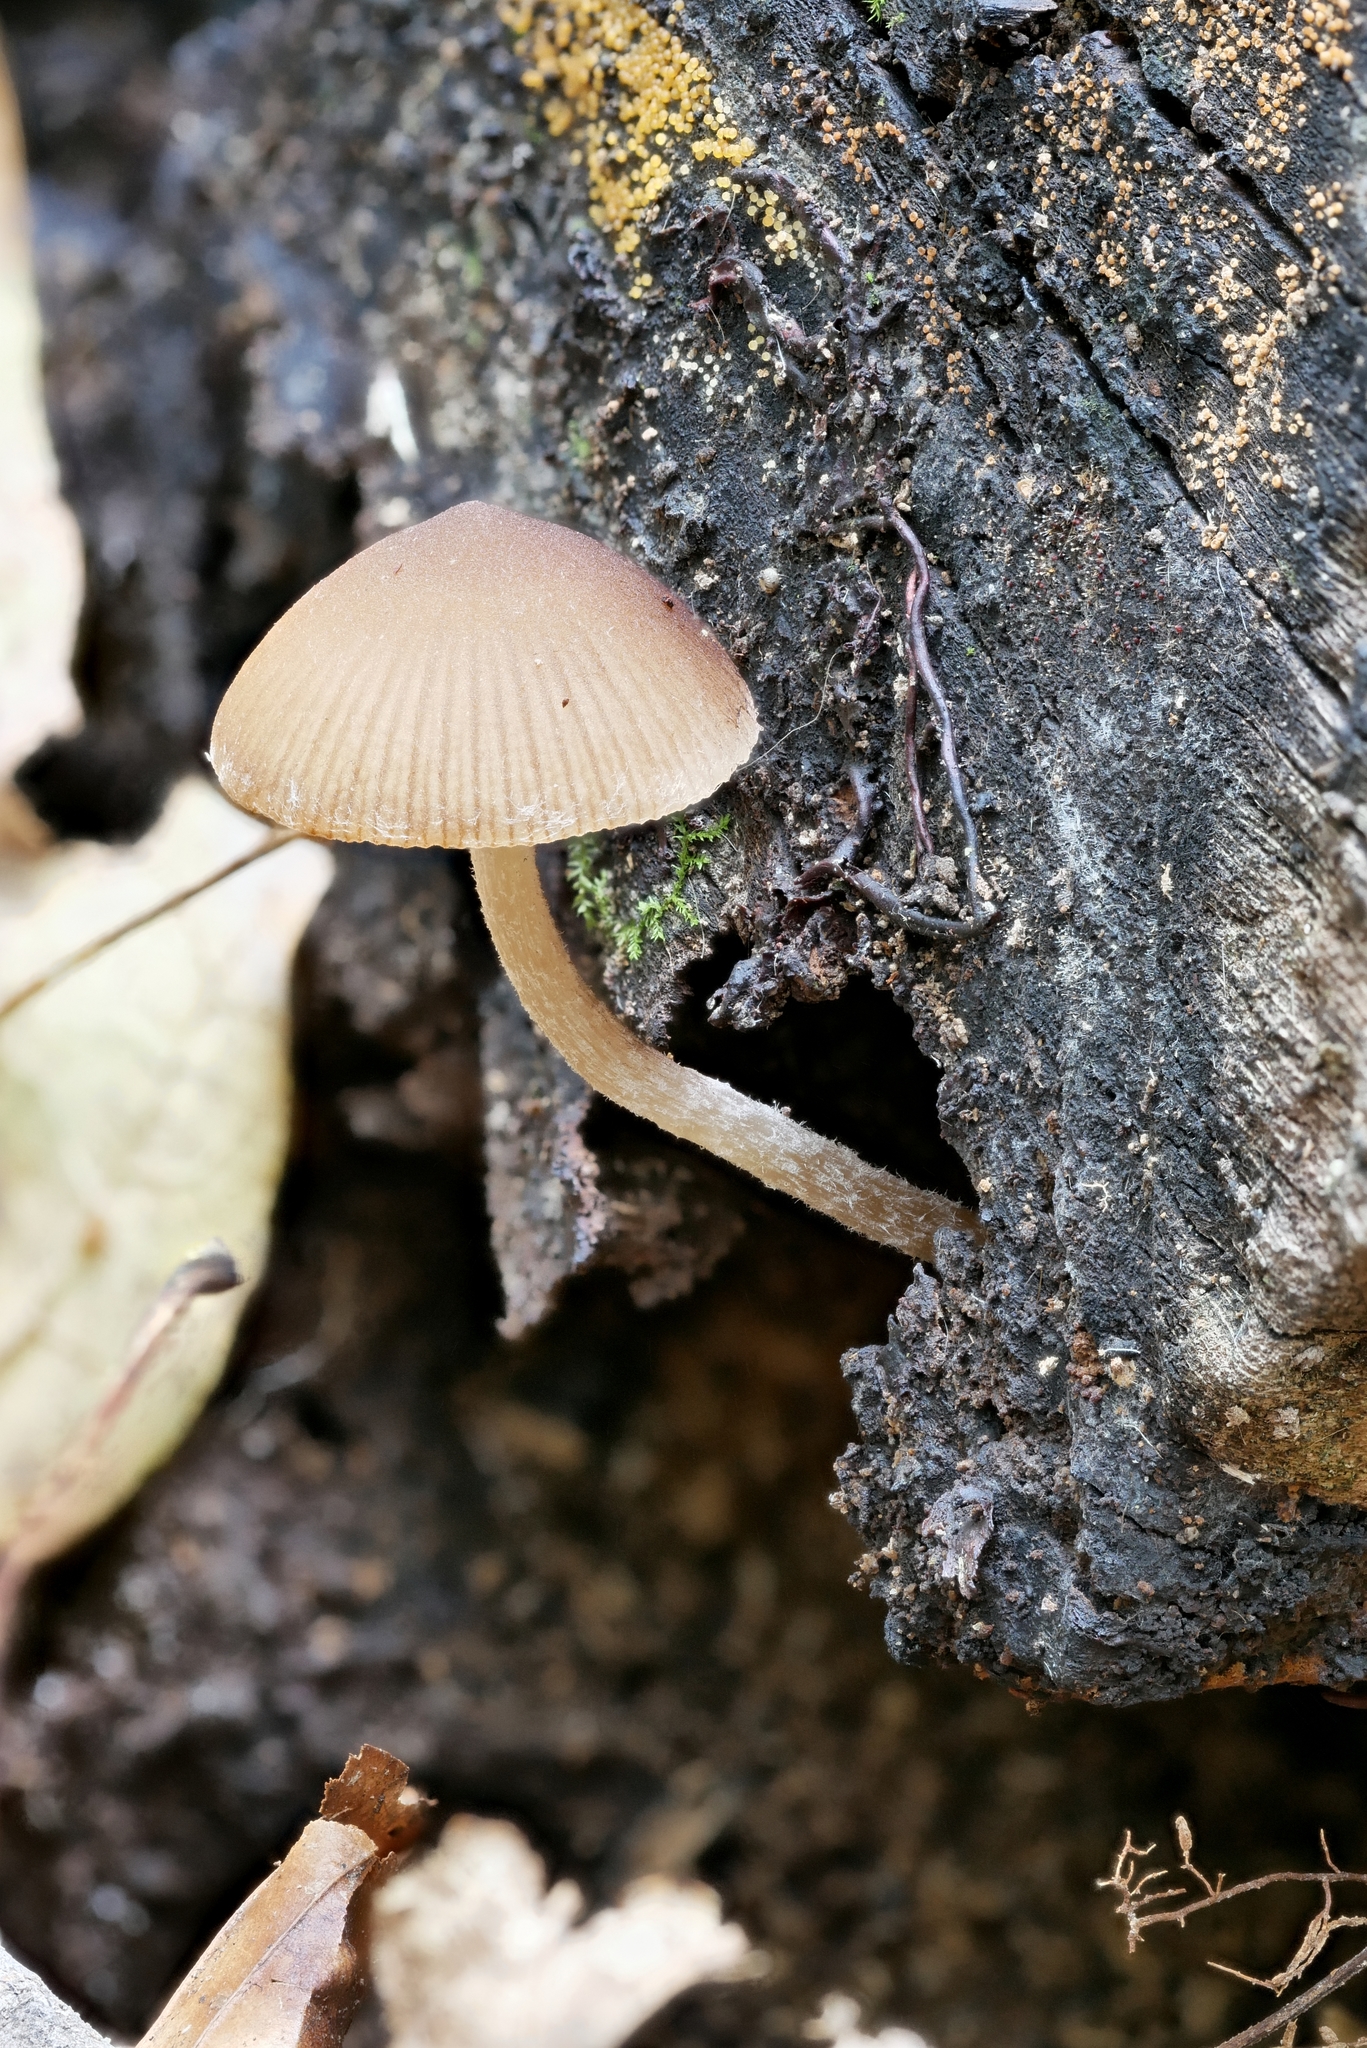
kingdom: Fungi
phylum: Basidiomycota
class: Agaricomycetes
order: Agaricales
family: Psathyrellaceae
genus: Psathyrella
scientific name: Psathyrella psammophila
